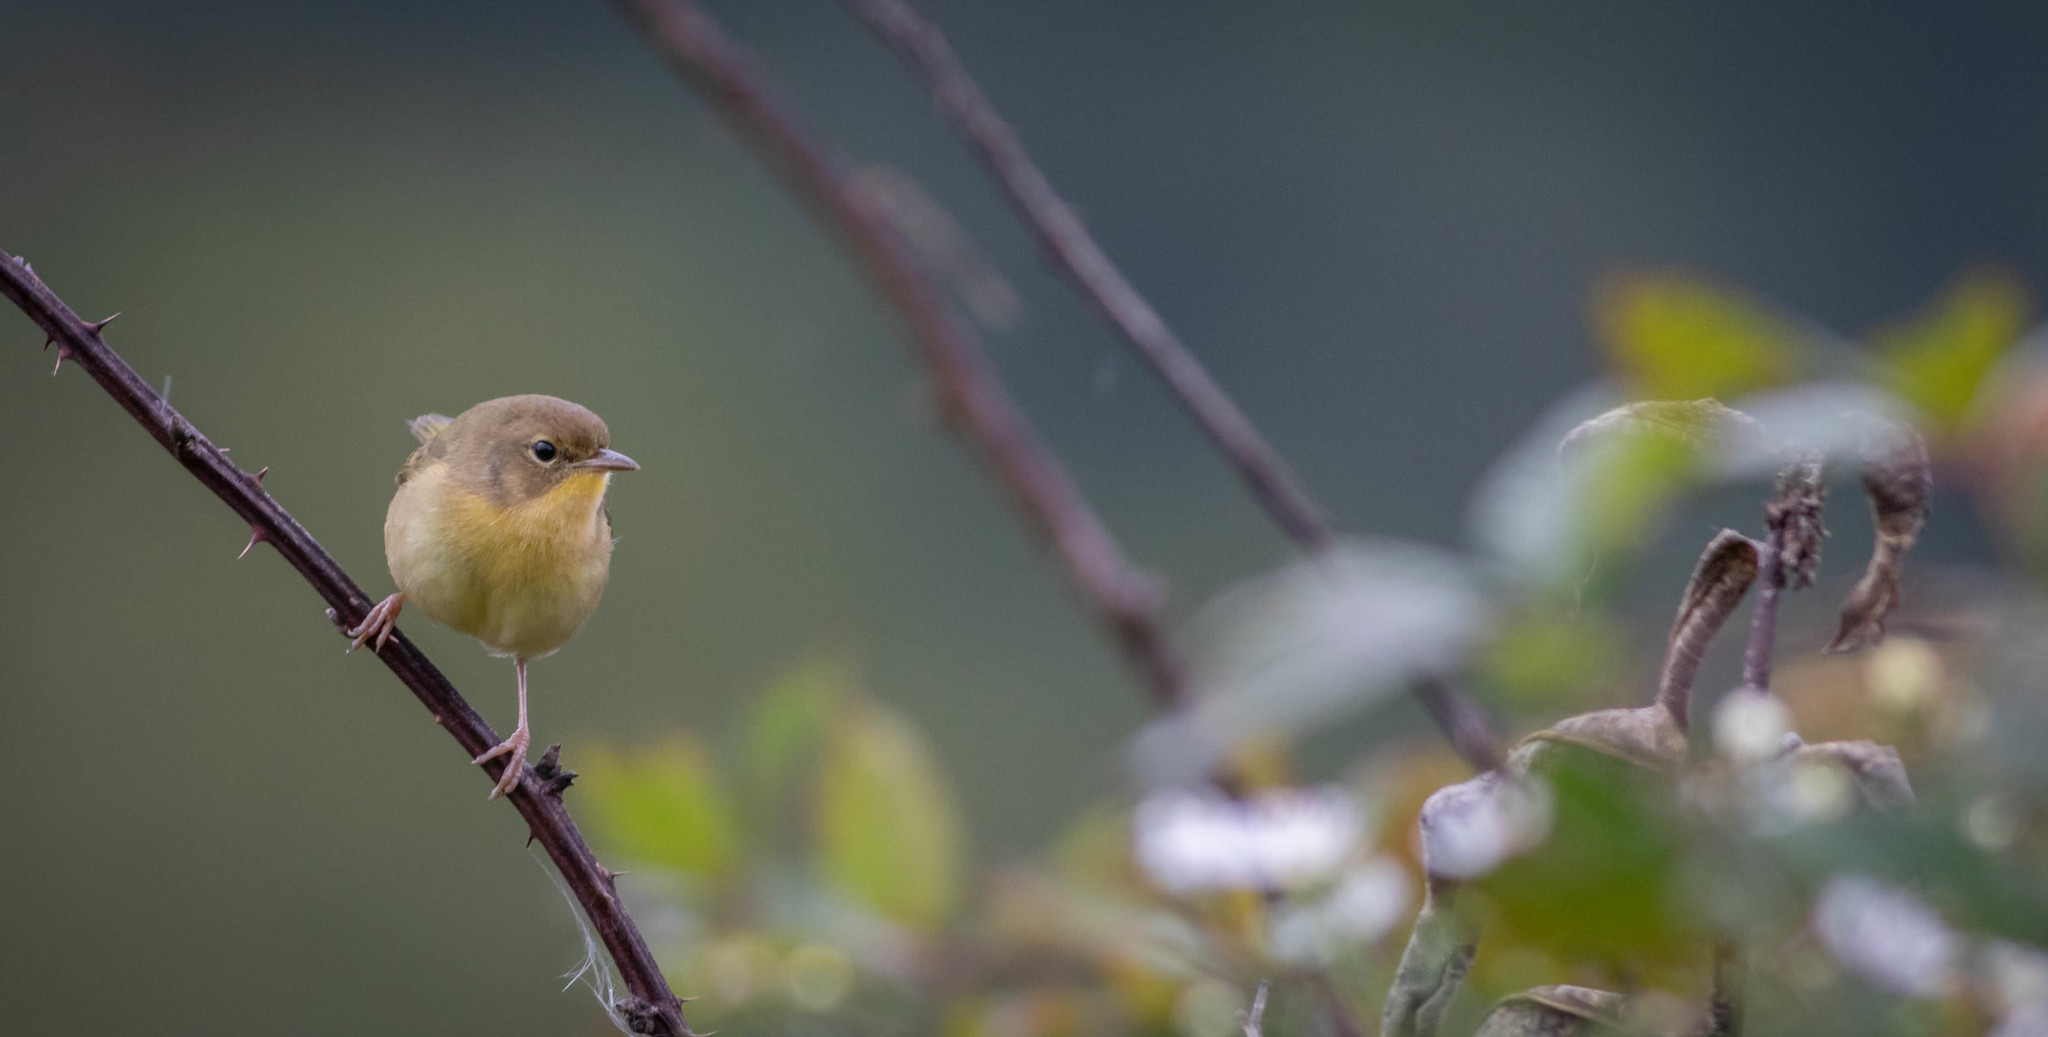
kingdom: Animalia
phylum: Chordata
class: Aves
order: Passeriformes
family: Parulidae
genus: Geothlypis
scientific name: Geothlypis trichas
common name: Common yellowthroat
